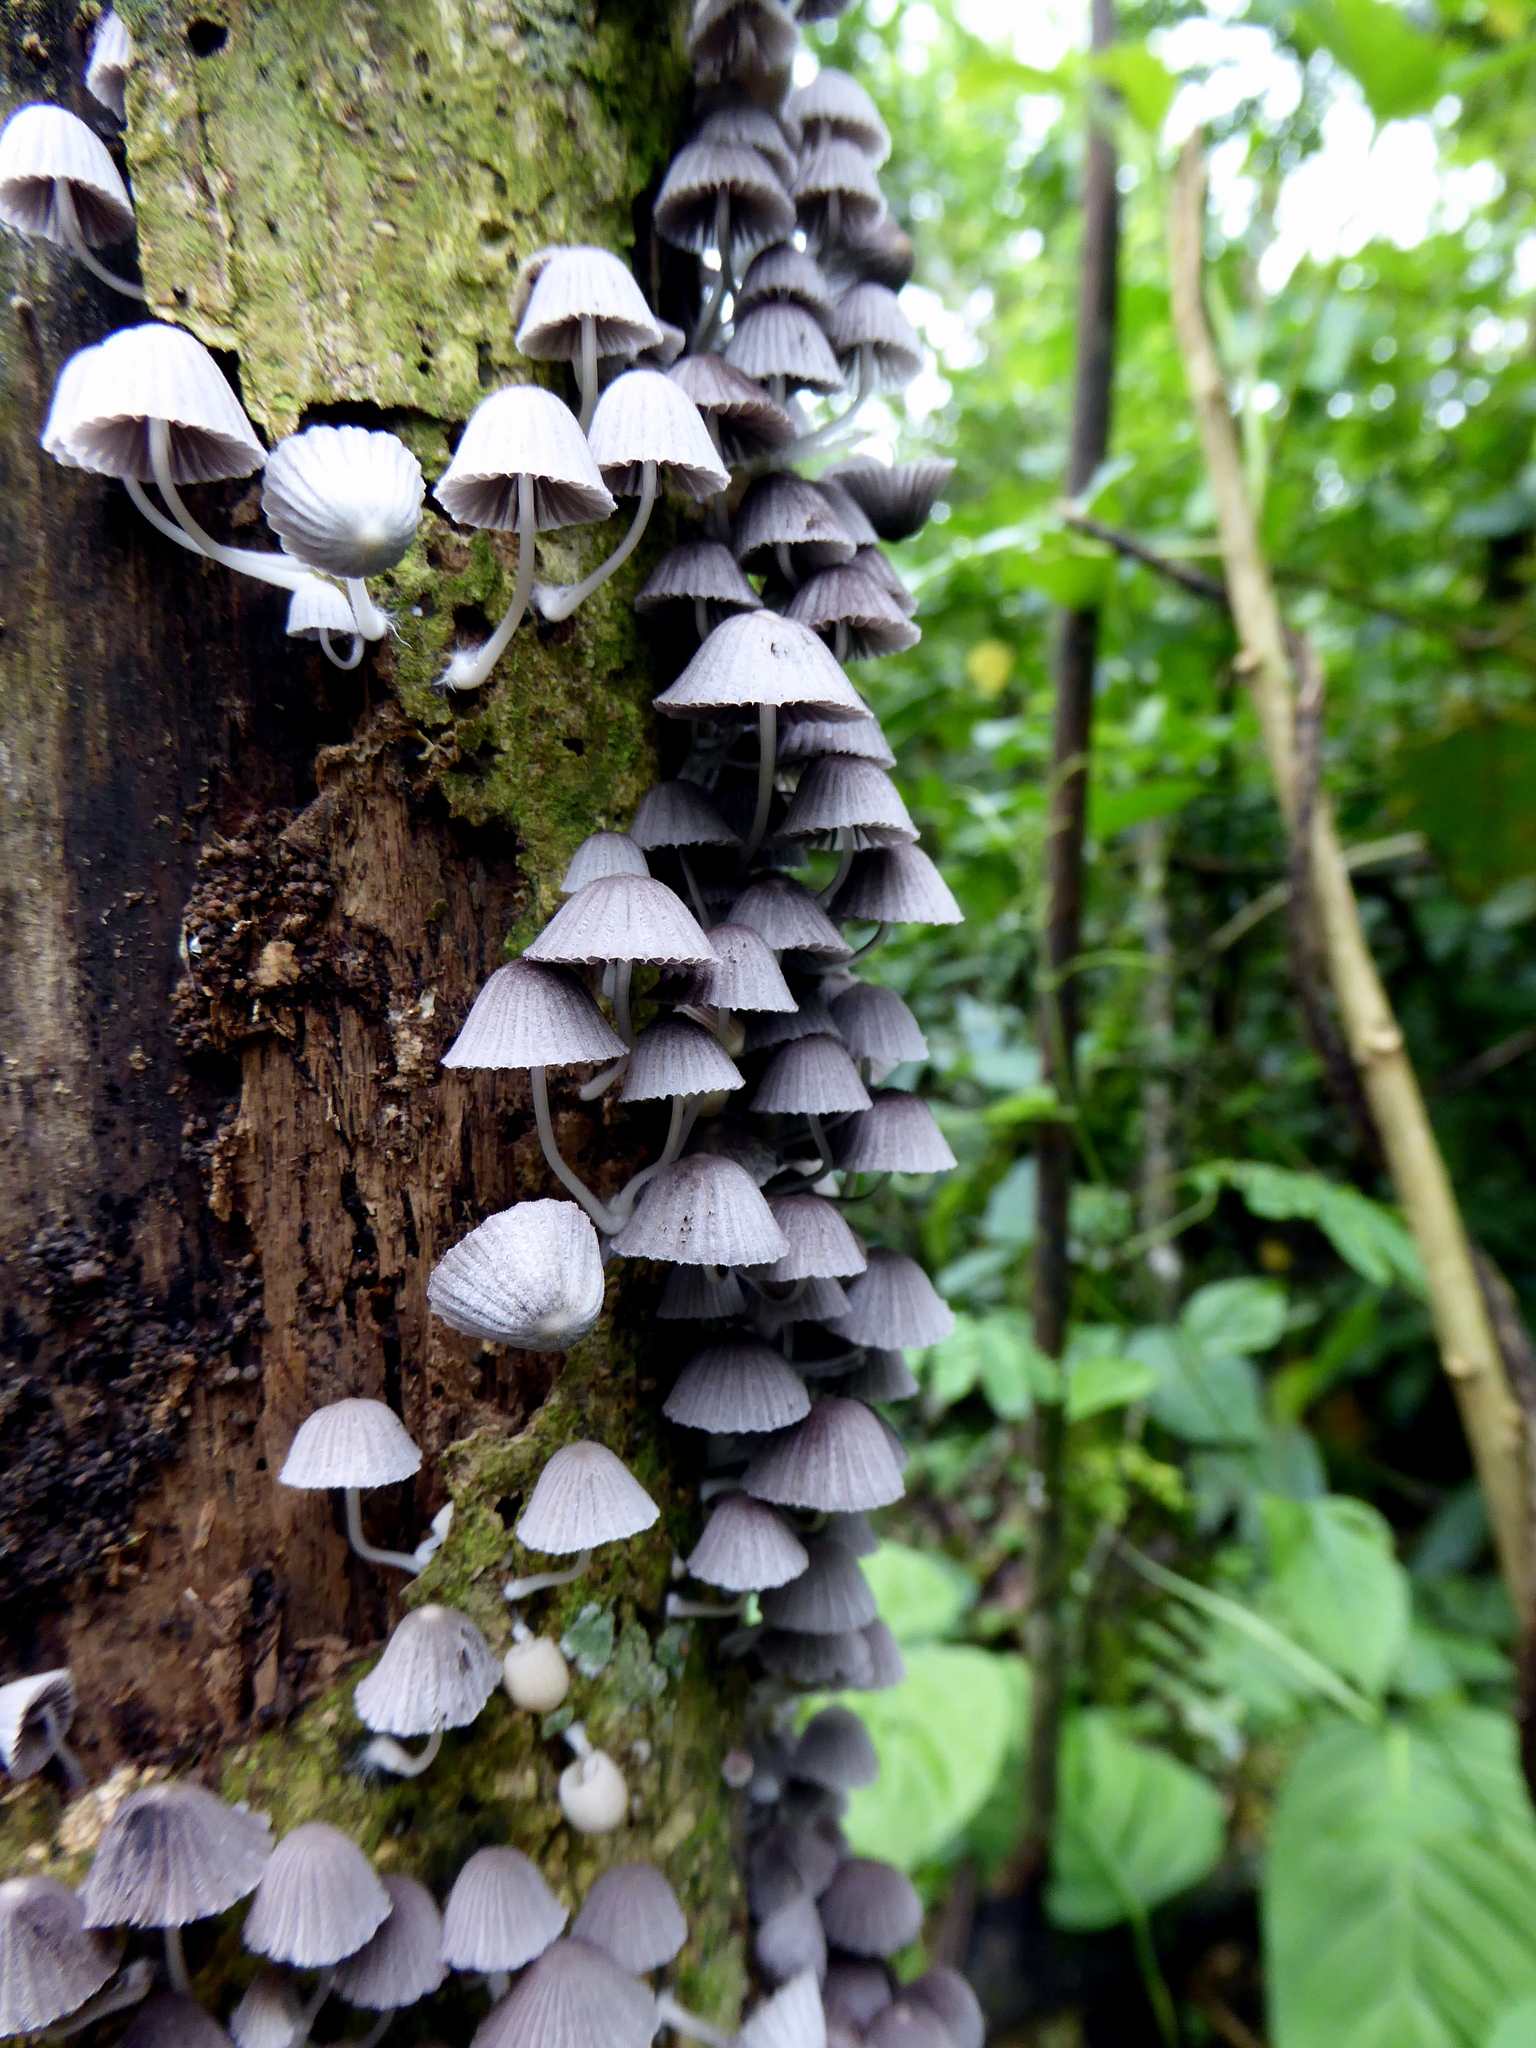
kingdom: Fungi
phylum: Basidiomycota
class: Agaricomycetes
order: Agaricales
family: Psathyrellaceae
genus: Coprinellus
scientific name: Coprinellus disseminatus
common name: Fairies' bonnets
